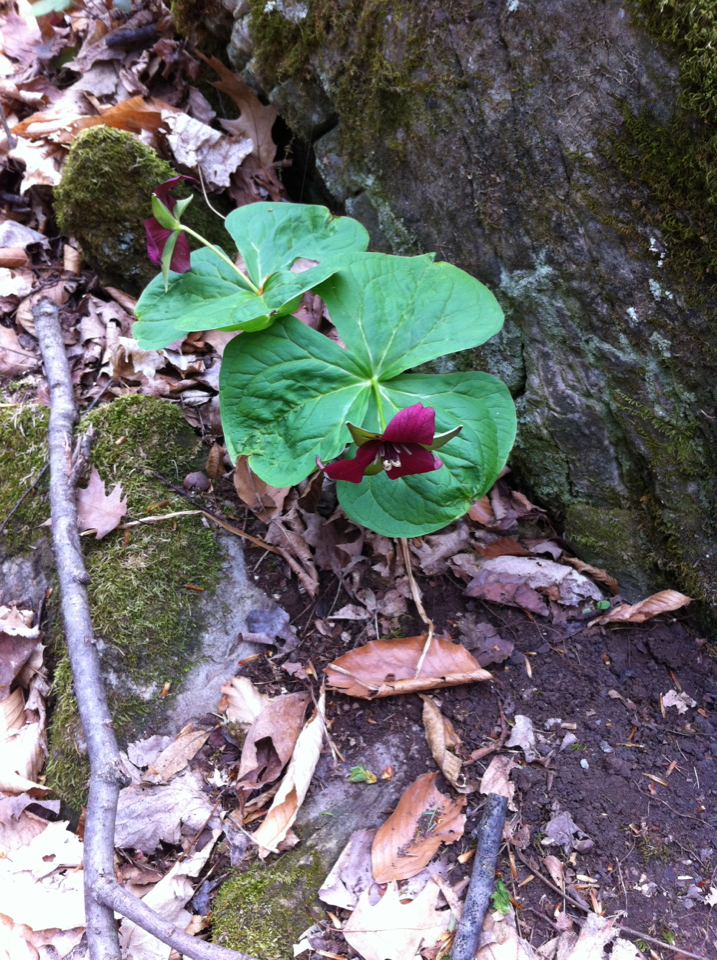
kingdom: Plantae
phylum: Tracheophyta
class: Liliopsida
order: Liliales
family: Melanthiaceae
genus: Trillium
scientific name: Trillium erectum
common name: Purple trillium
